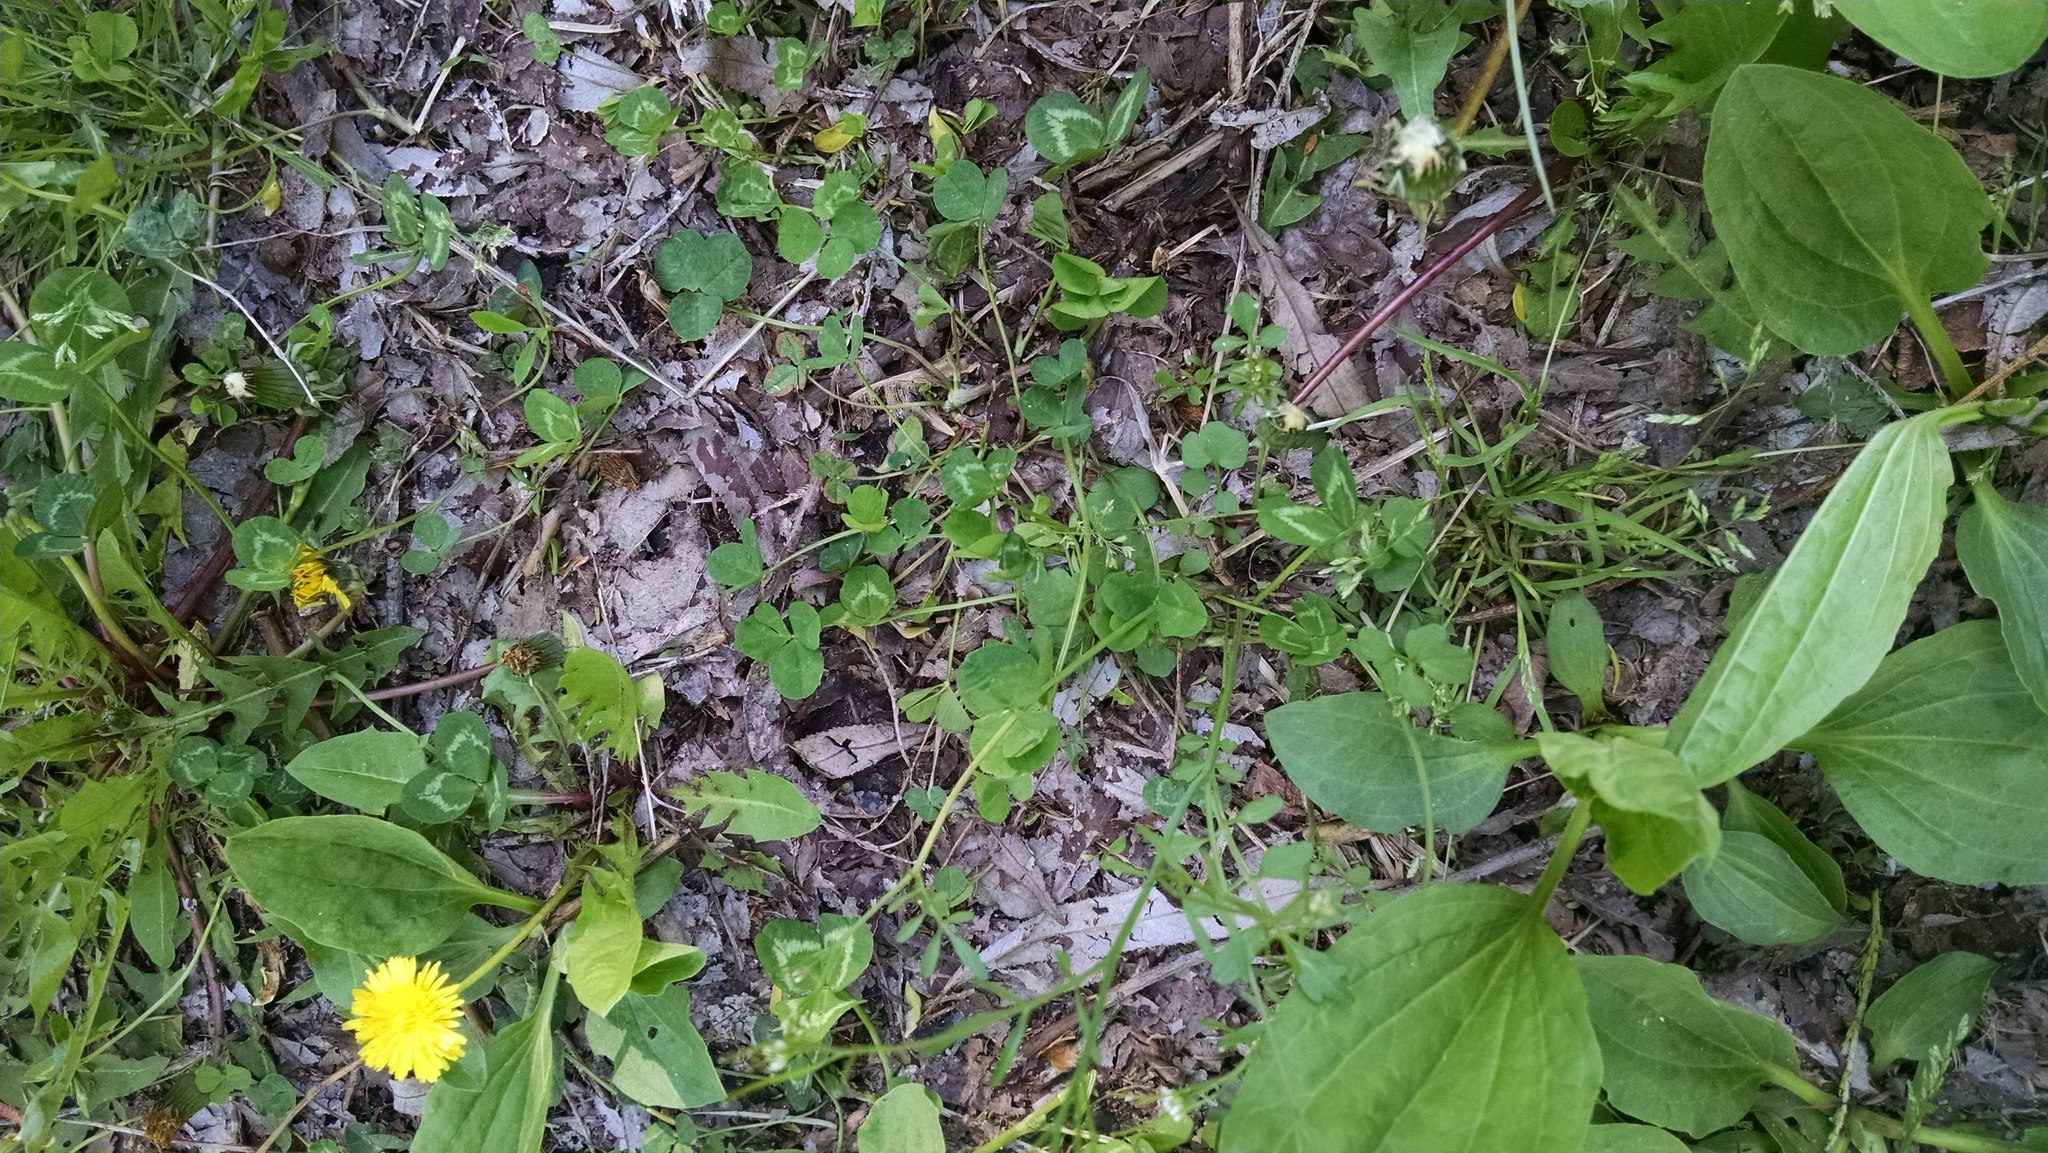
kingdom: Plantae
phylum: Tracheophyta
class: Magnoliopsida
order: Fabales
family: Fabaceae
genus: Trifolium
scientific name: Trifolium repens
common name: White clover
